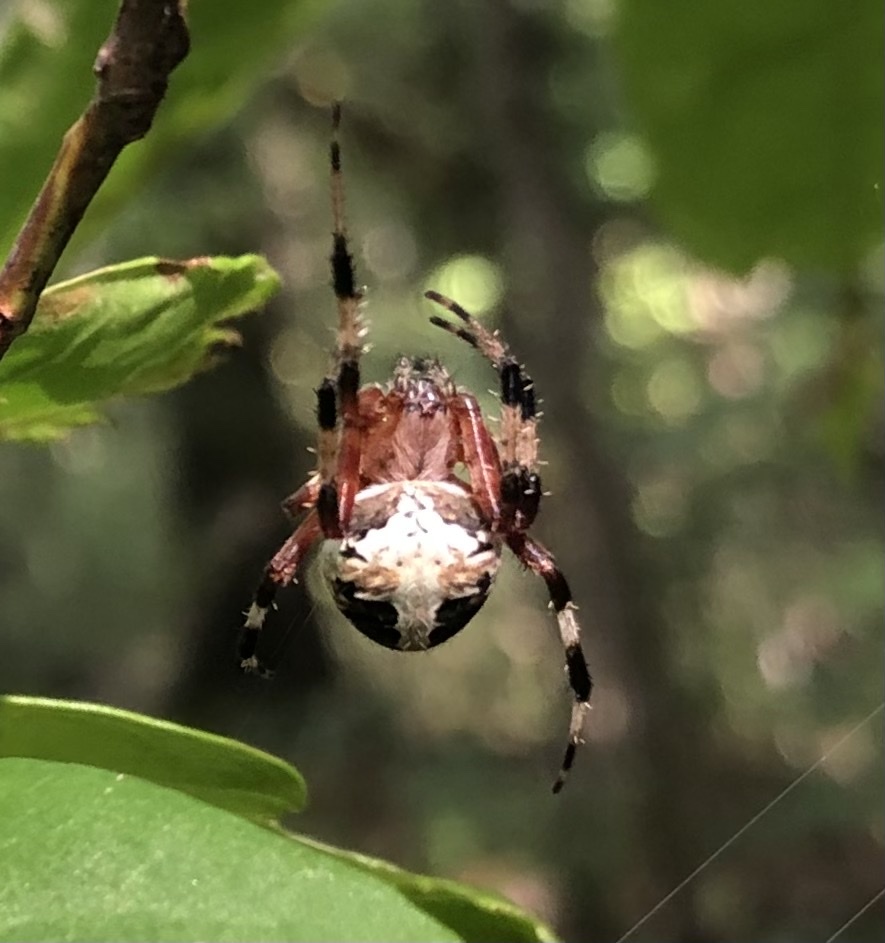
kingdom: Animalia
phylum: Arthropoda
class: Arachnida
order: Araneae
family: Araneidae
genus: Neoscona
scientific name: Neoscona domiciliorum
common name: Red-femured spotted orbweaver
